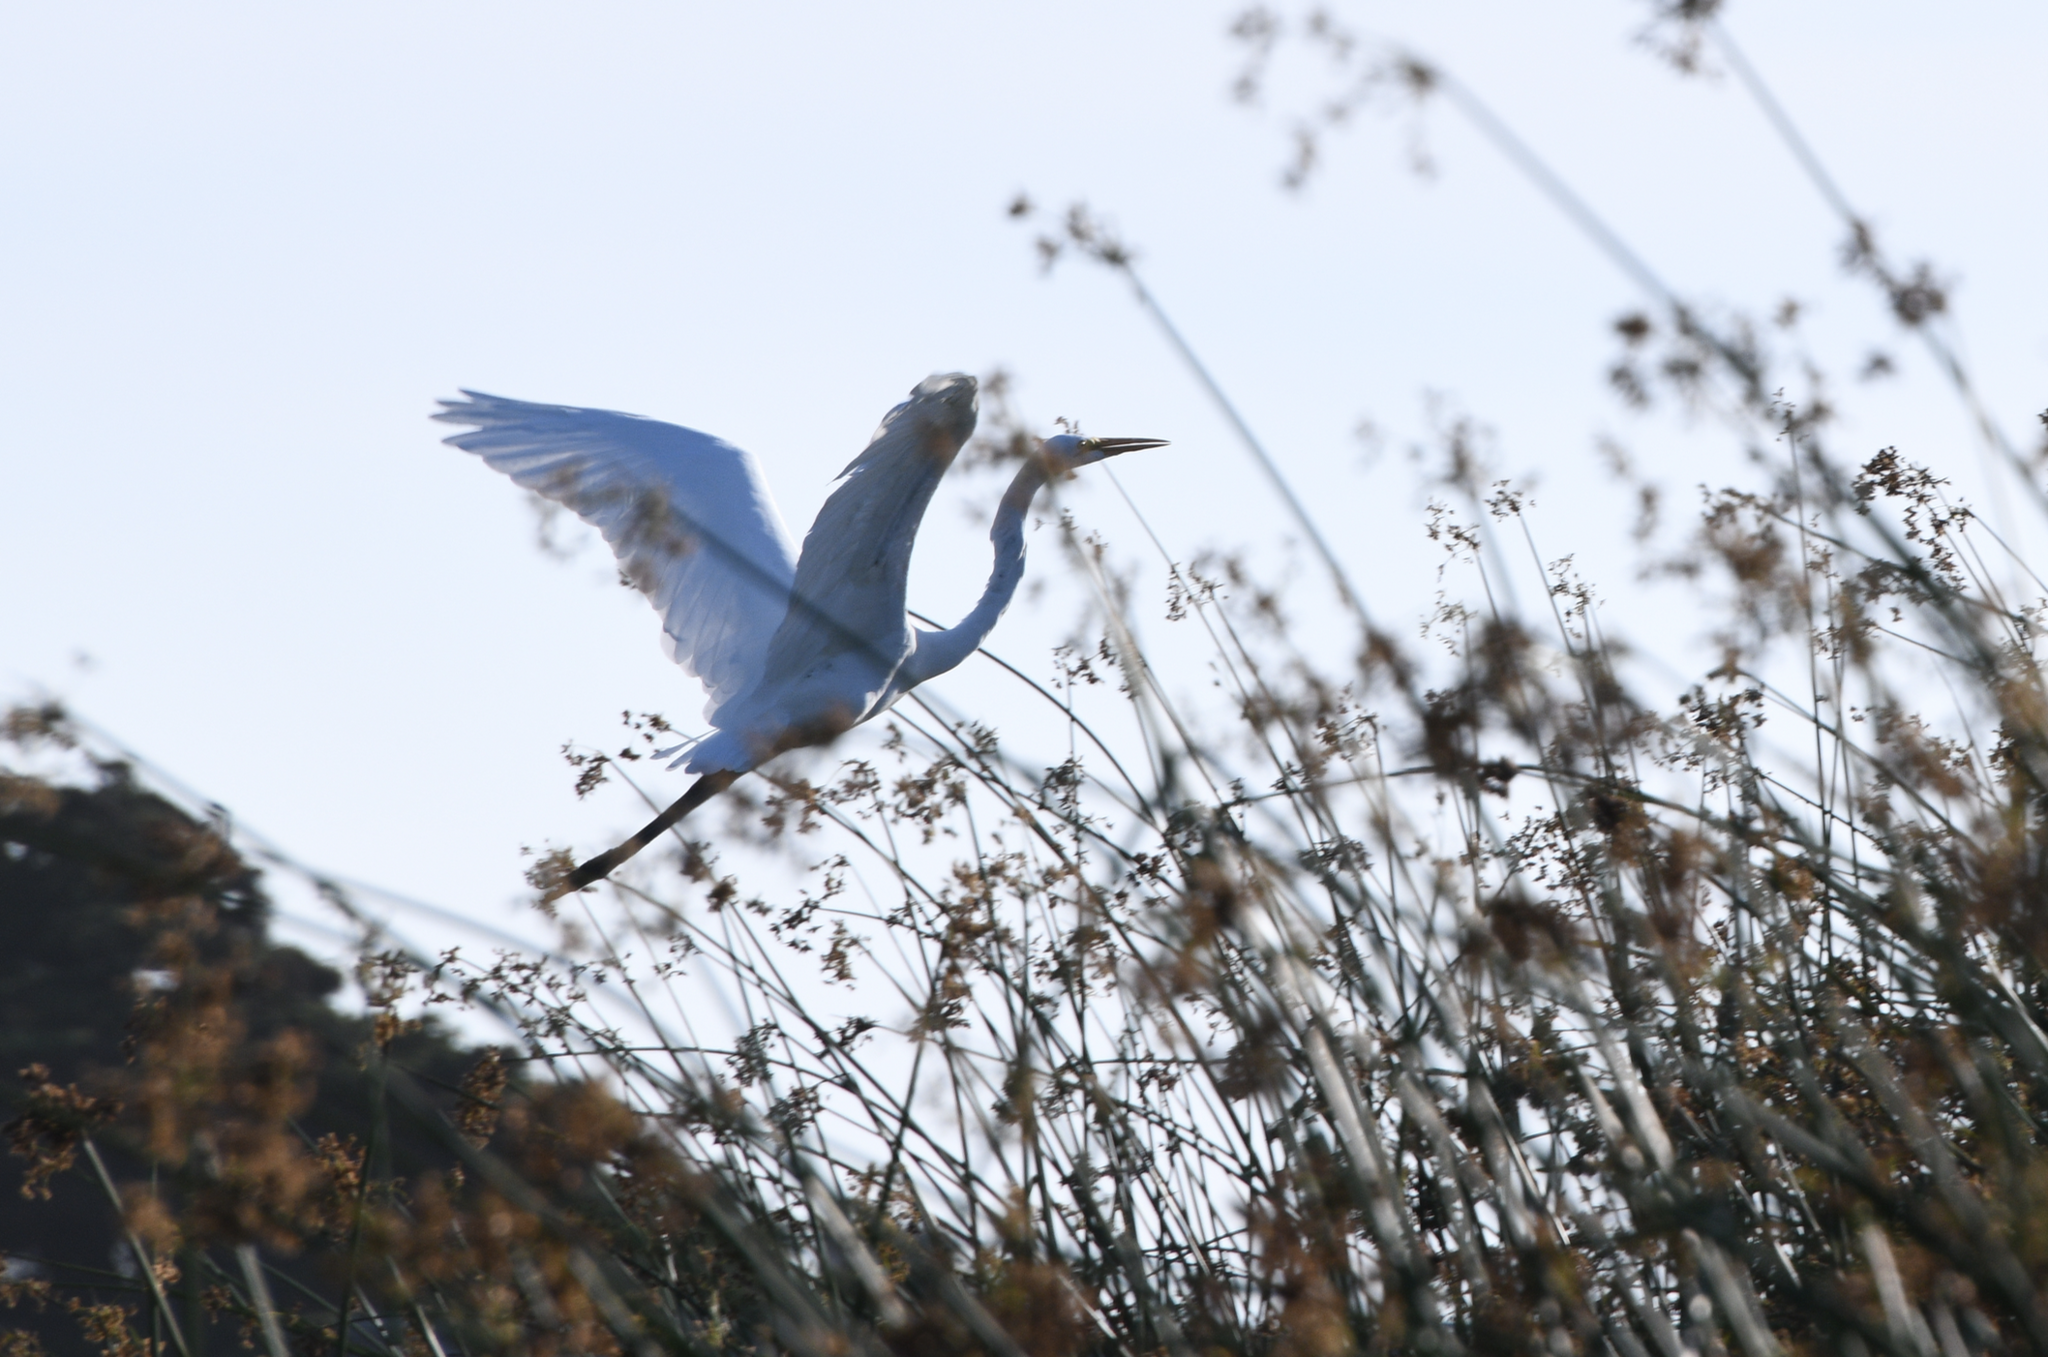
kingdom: Animalia
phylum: Chordata
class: Aves
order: Pelecaniformes
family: Ardeidae
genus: Ardea
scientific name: Ardea alba
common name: Great egret
